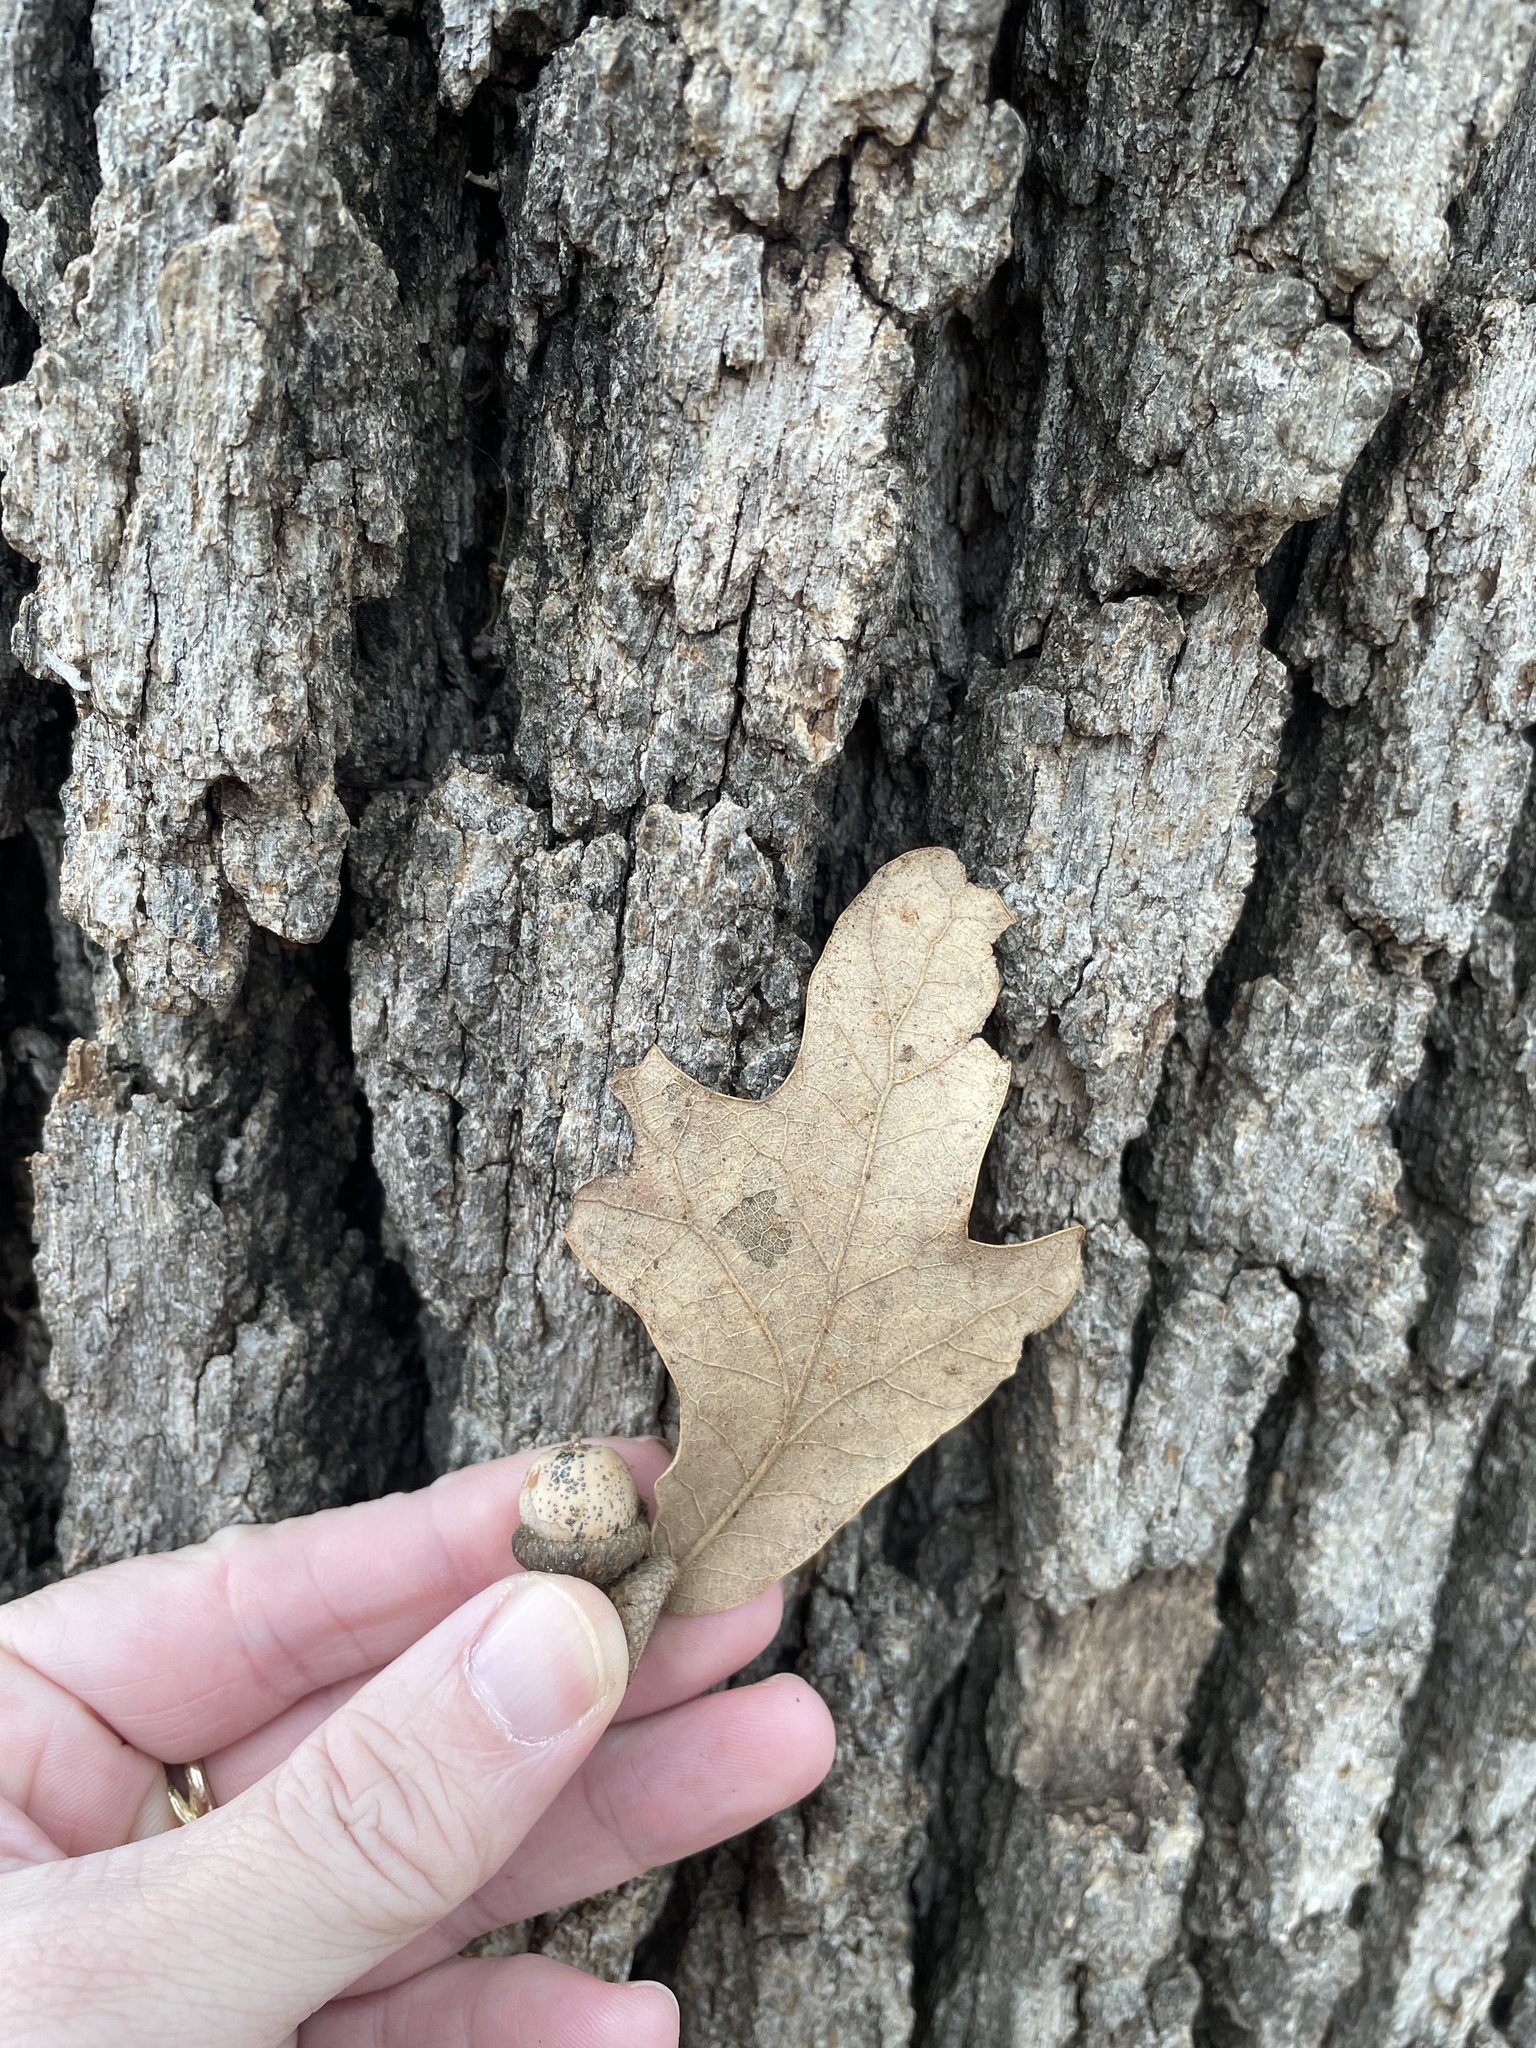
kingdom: Plantae
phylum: Tracheophyta
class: Magnoliopsida
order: Fagales
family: Fagaceae
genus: Quercus
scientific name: Quercus stellata
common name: Post oak
